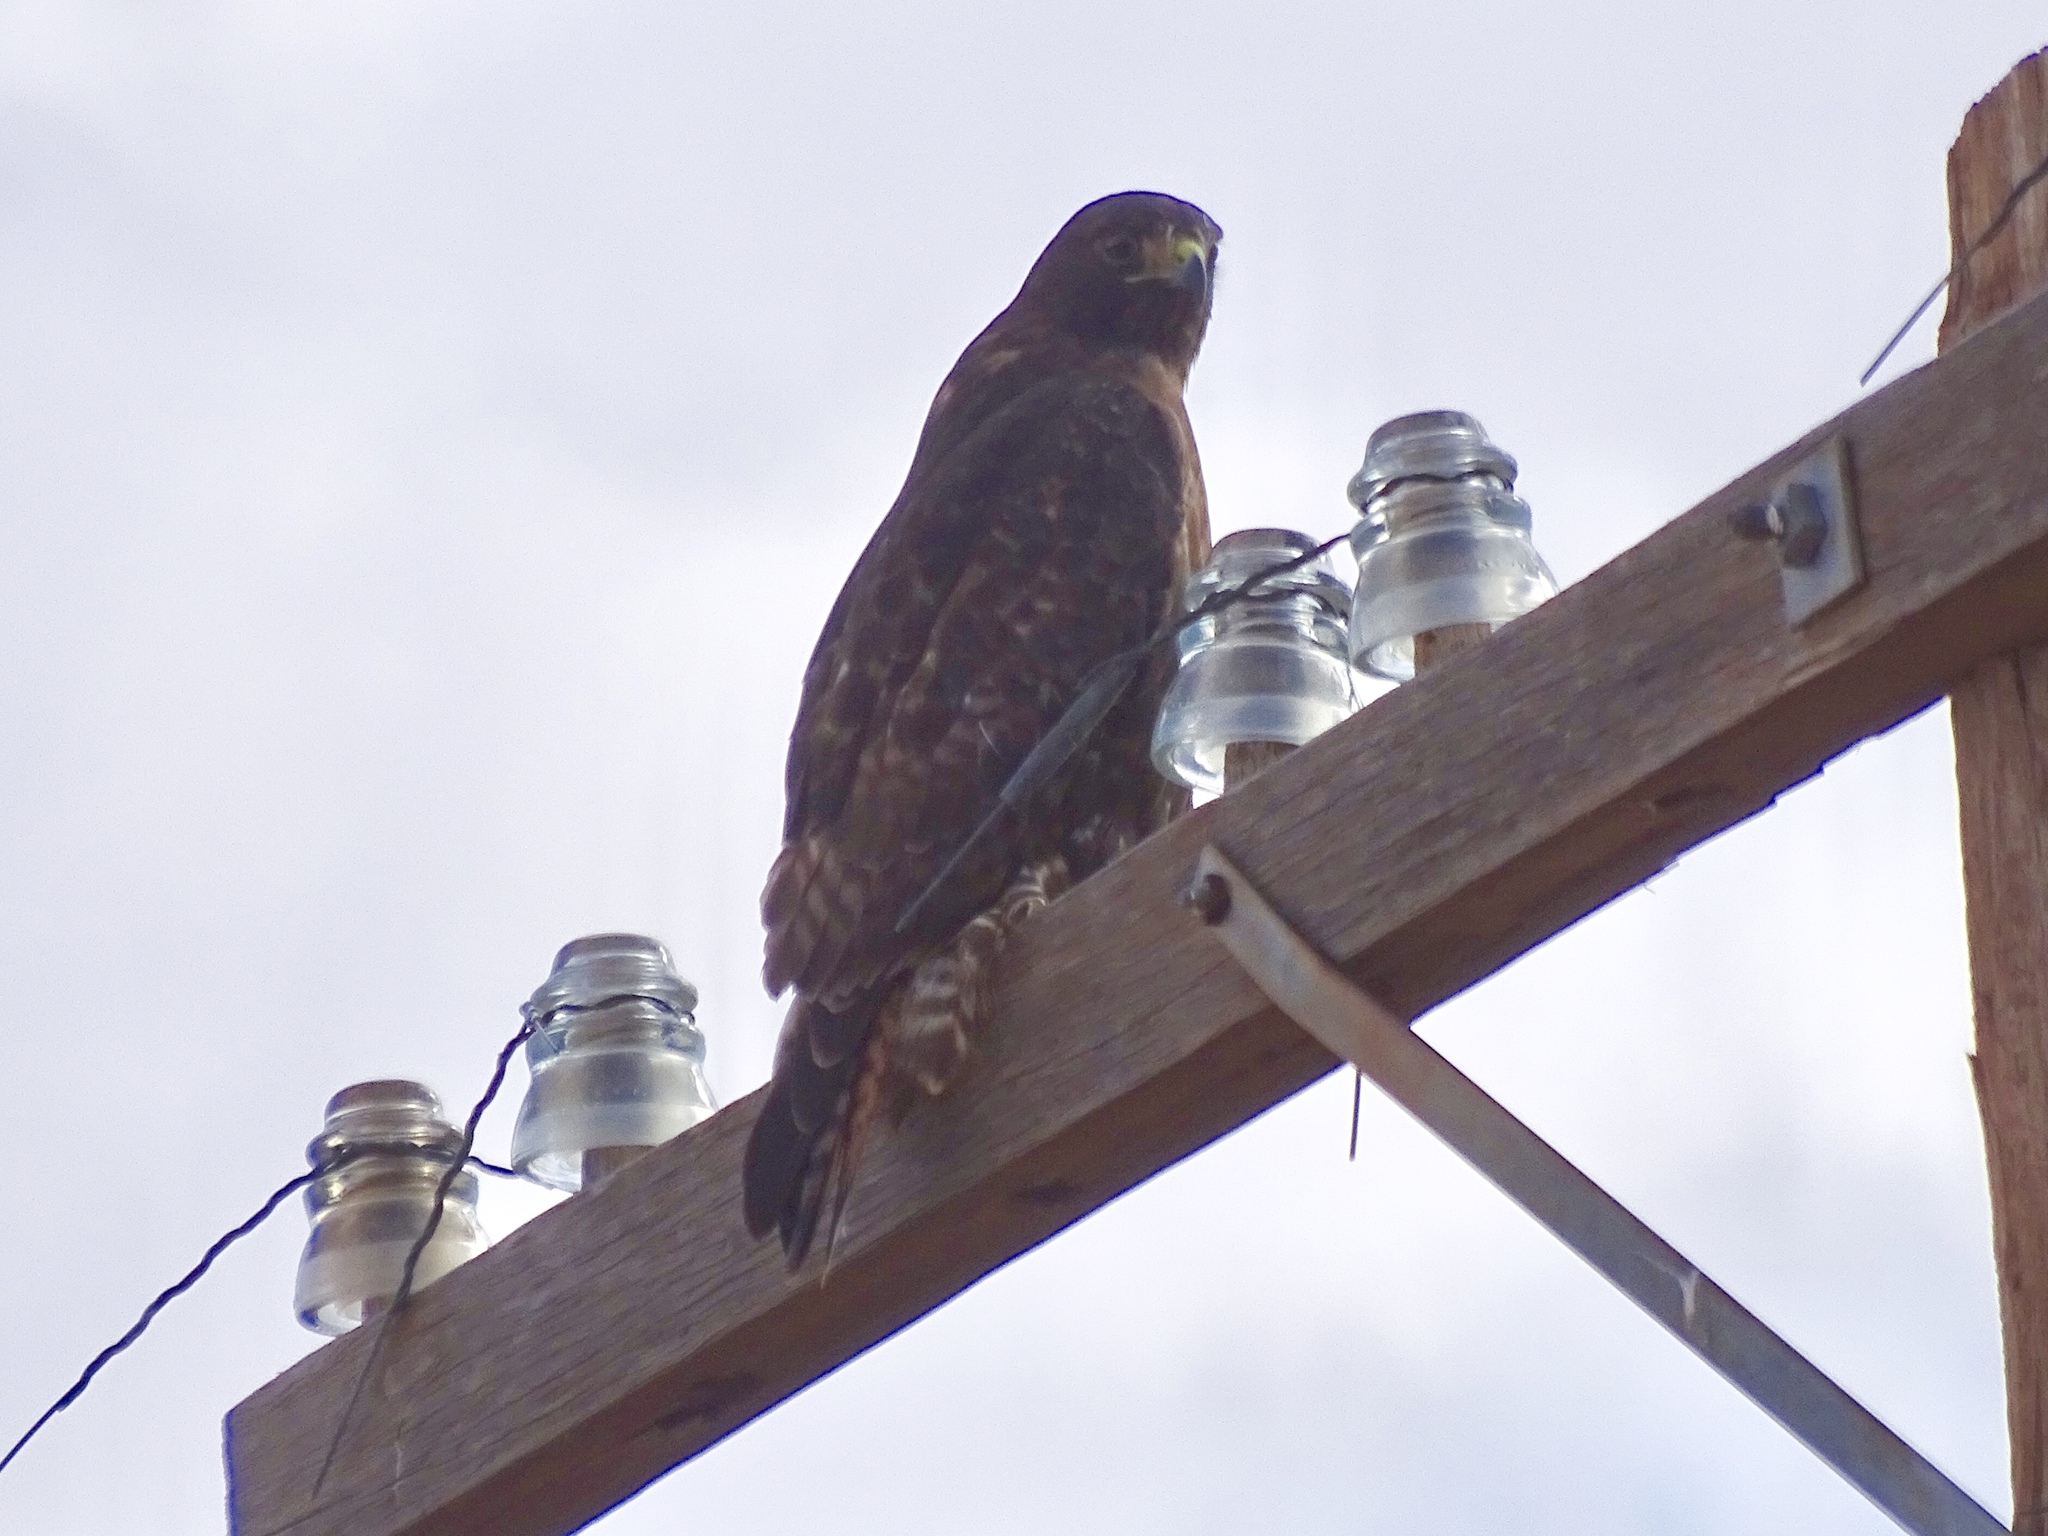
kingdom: Animalia
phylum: Chordata
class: Aves
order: Accipitriformes
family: Accipitridae
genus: Buteo
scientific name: Buteo jamaicensis
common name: Red-tailed hawk
